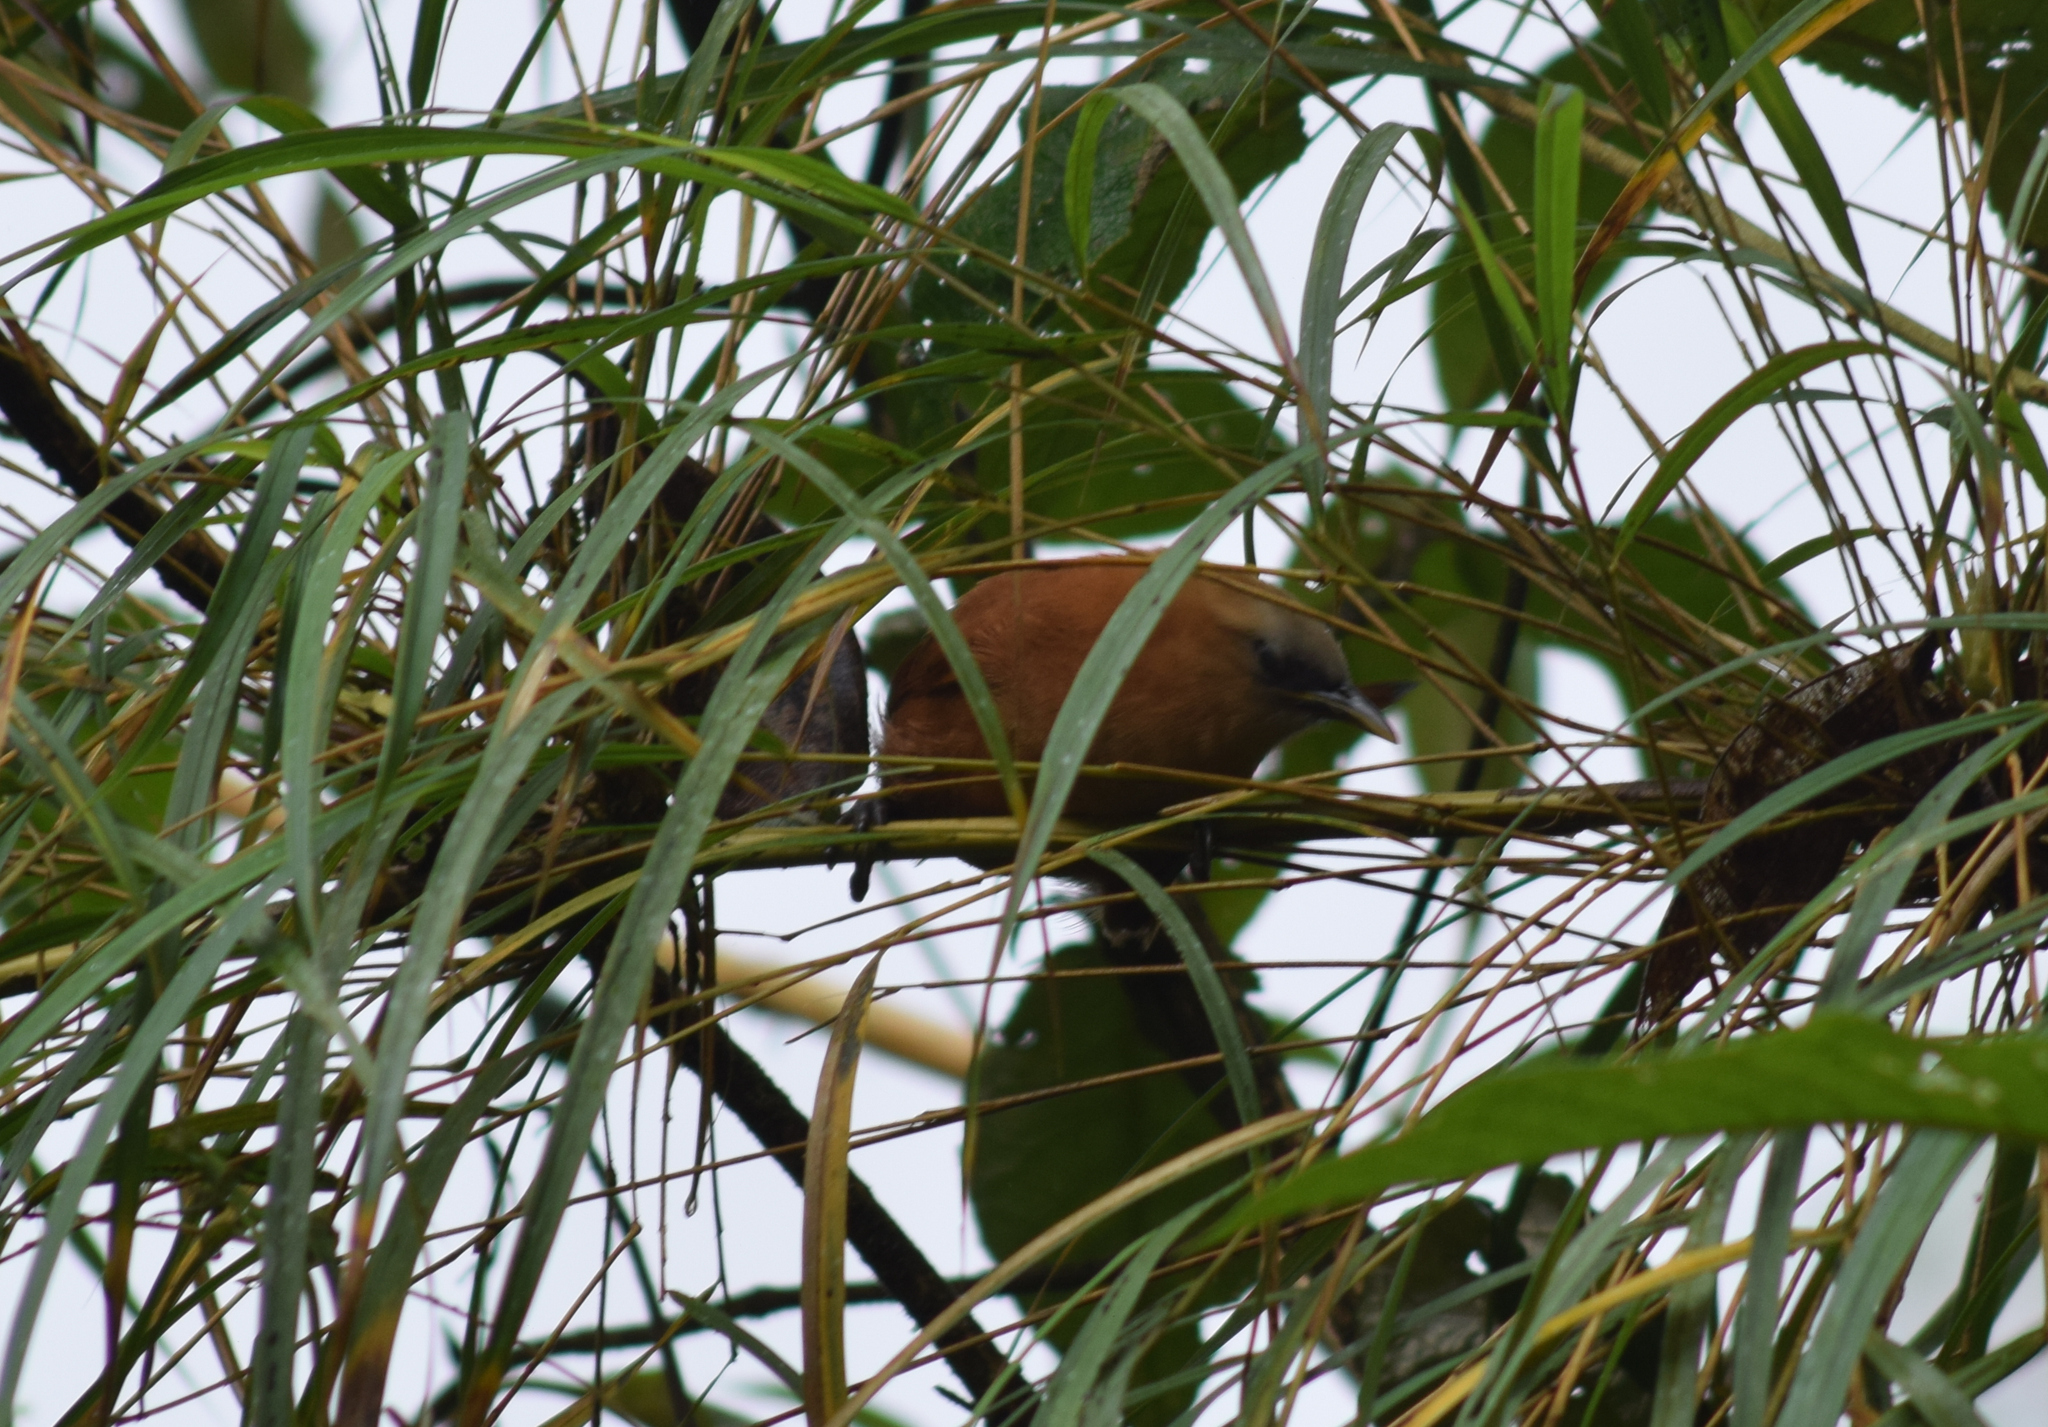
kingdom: Animalia
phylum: Chordata
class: Aves
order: Passeriformes
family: Troglodytidae
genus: Cinnycerthia
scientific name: Cinnycerthia unirufa
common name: Rufous wren
